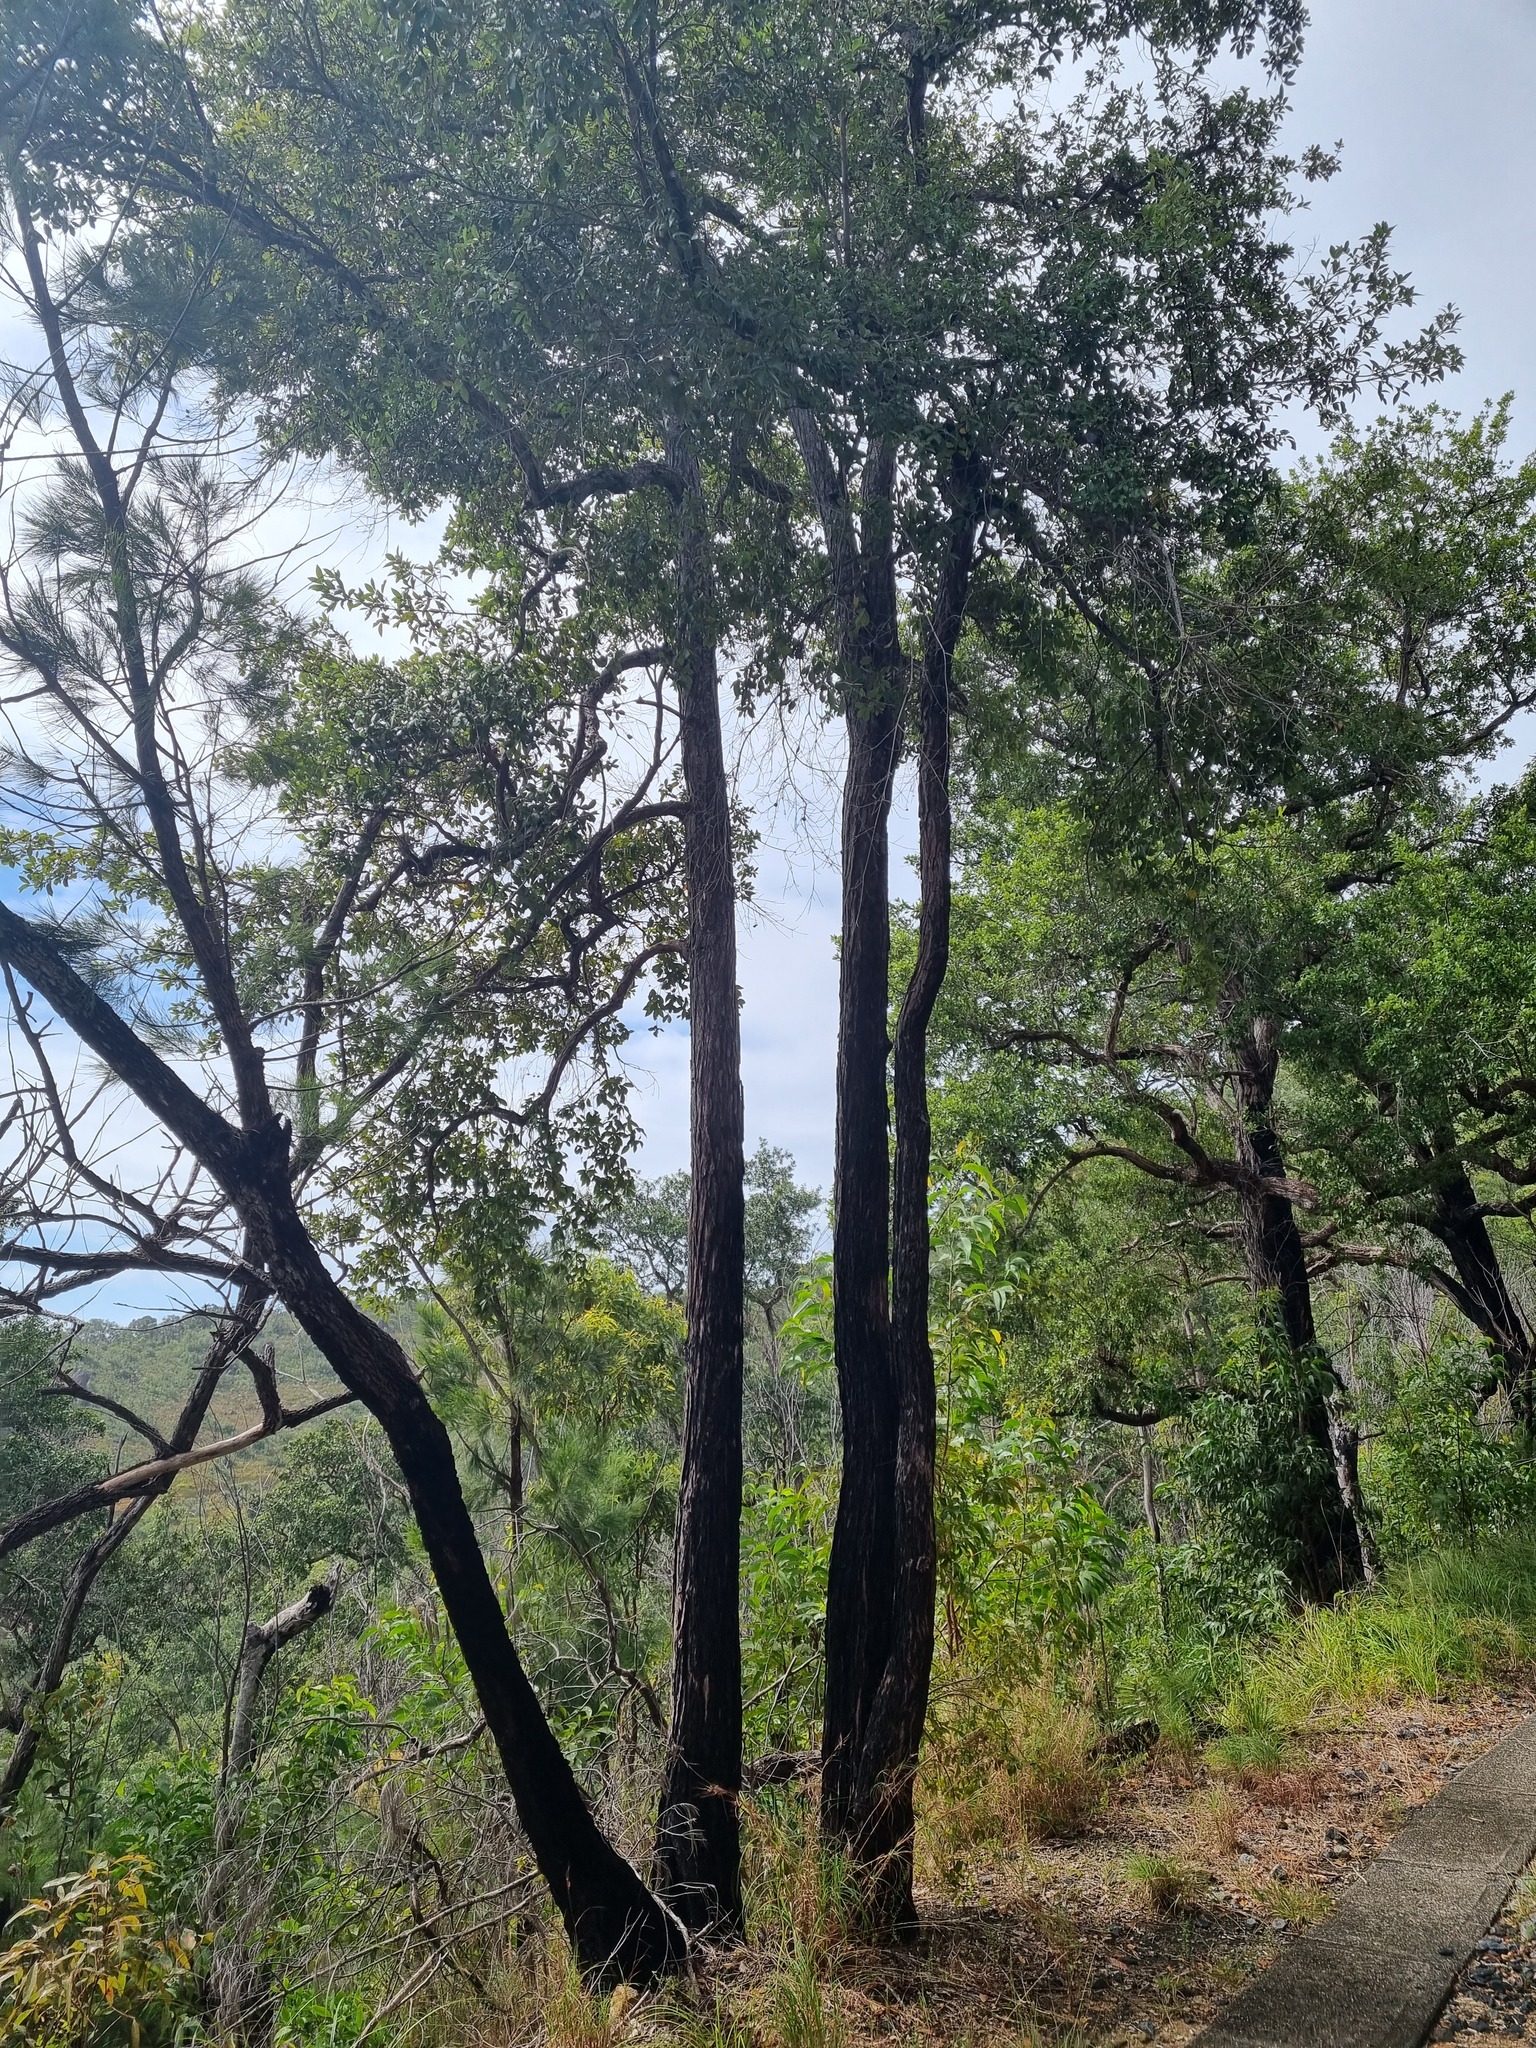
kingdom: Plantae
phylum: Tracheophyta
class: Magnoliopsida
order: Myrtales
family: Myrtaceae
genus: Syncarpia
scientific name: Syncarpia glomulifera
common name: Turpentine tree
